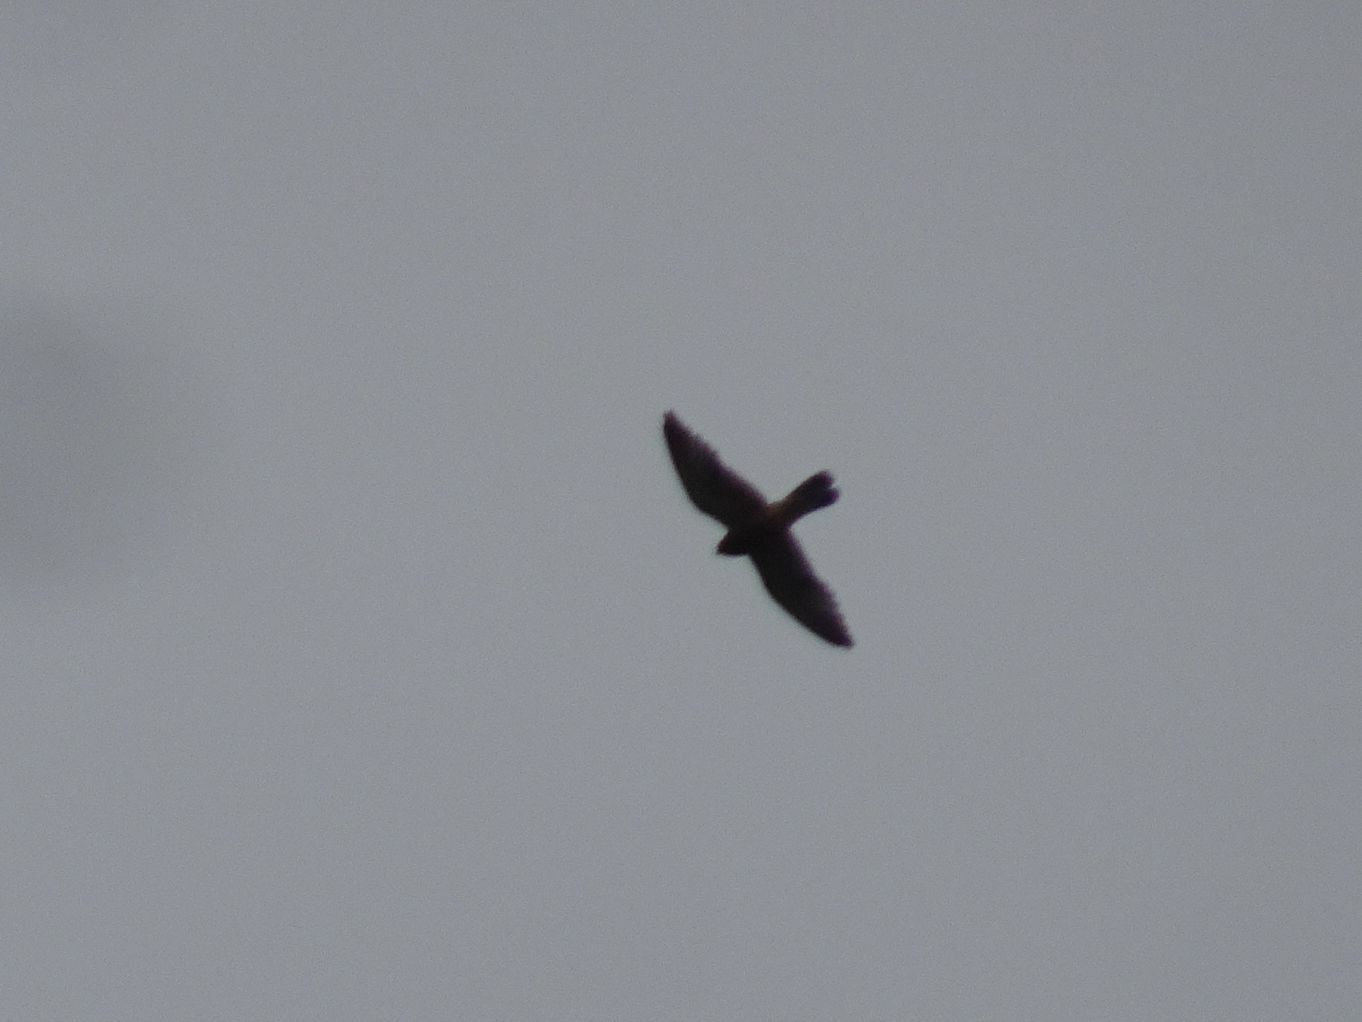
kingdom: Animalia
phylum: Chordata
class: Aves
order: Falconiformes
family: Falconidae
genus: Falco
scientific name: Falco rupicolus
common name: Rock kestrel
